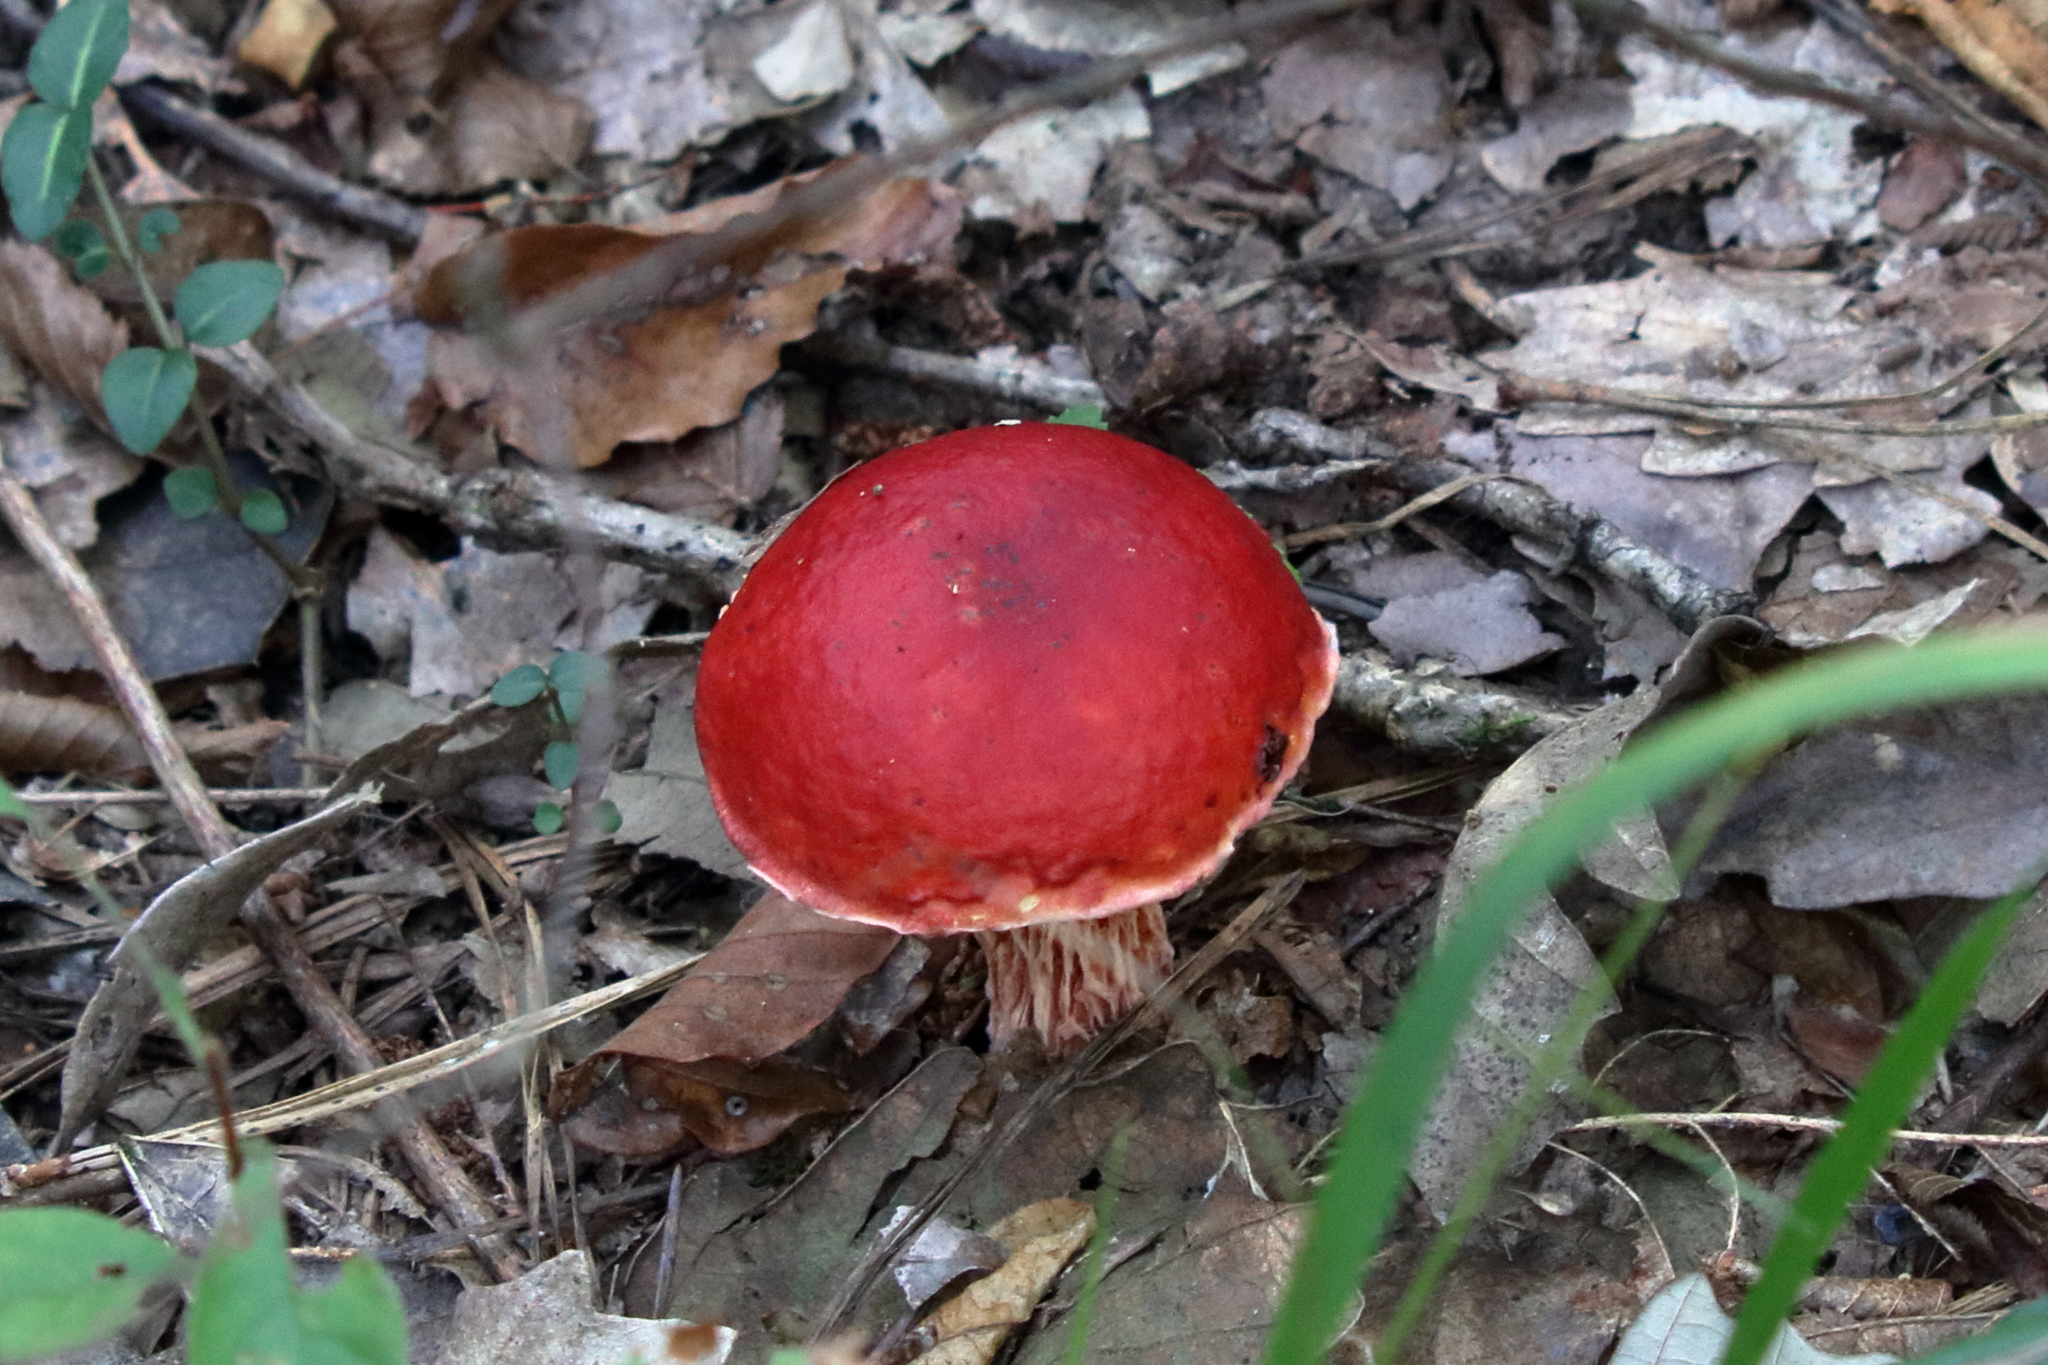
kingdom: Fungi
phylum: Basidiomycota
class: Agaricomycetes
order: Boletales
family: Boletaceae
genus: Butyriboletus
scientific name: Butyriboletus frostii
